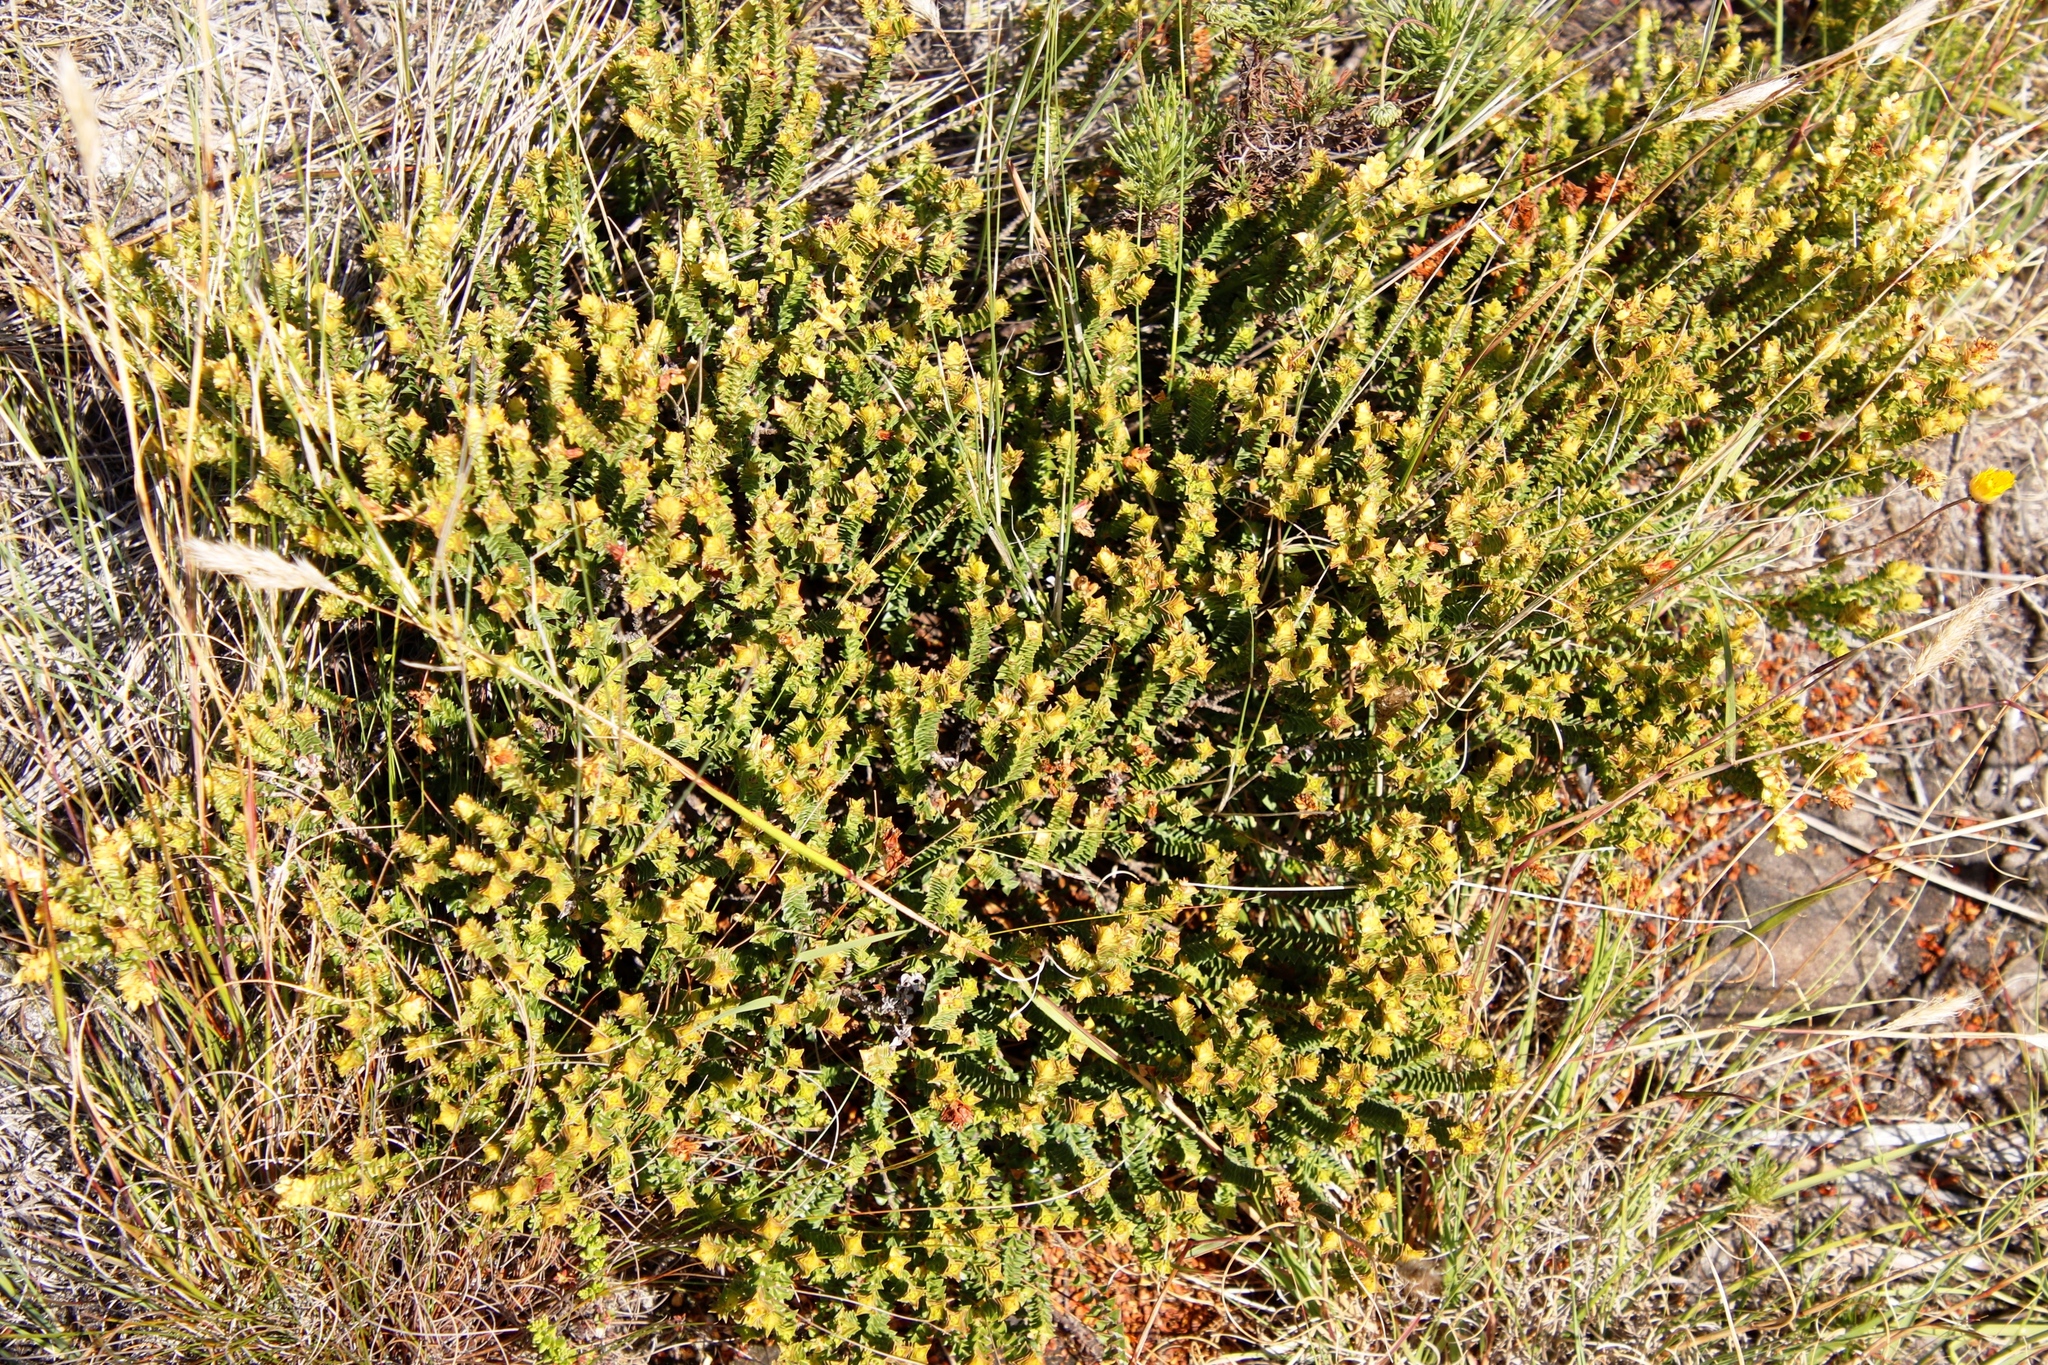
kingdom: Plantae
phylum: Tracheophyta
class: Magnoliopsida
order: Myrtales
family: Penaeaceae
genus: Penaea
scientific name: Penaea mucronata
